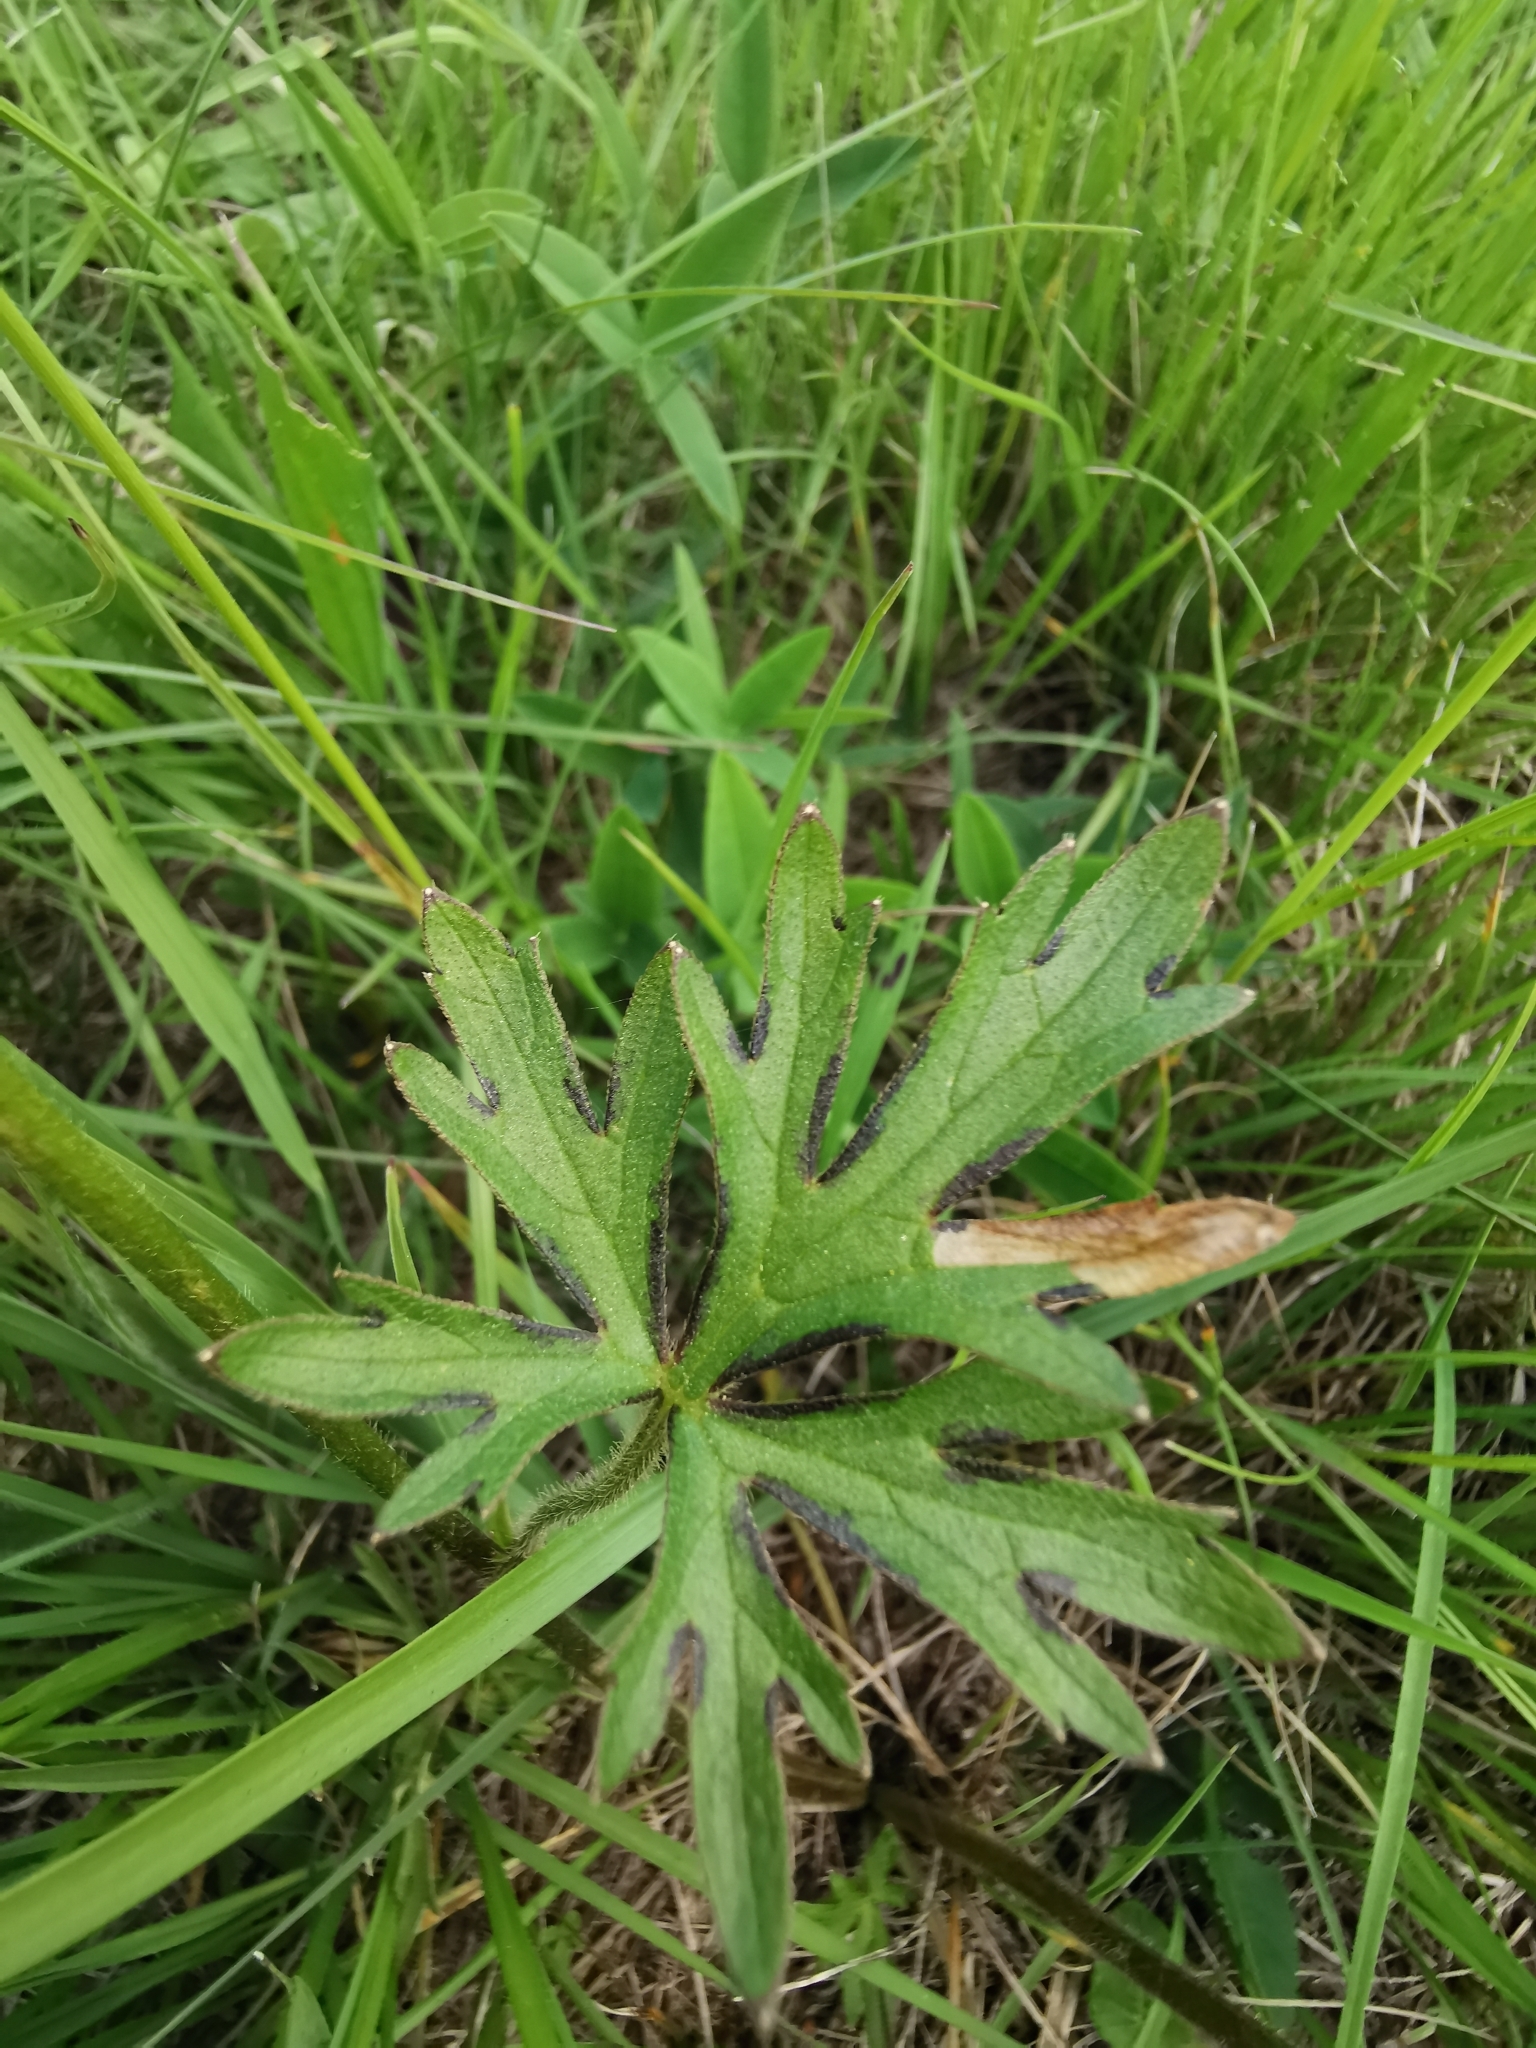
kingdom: Plantae
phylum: Tracheophyta
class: Magnoliopsida
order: Ranunculales
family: Ranunculaceae
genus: Ranunculus
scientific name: Ranunculus polyanthemos
